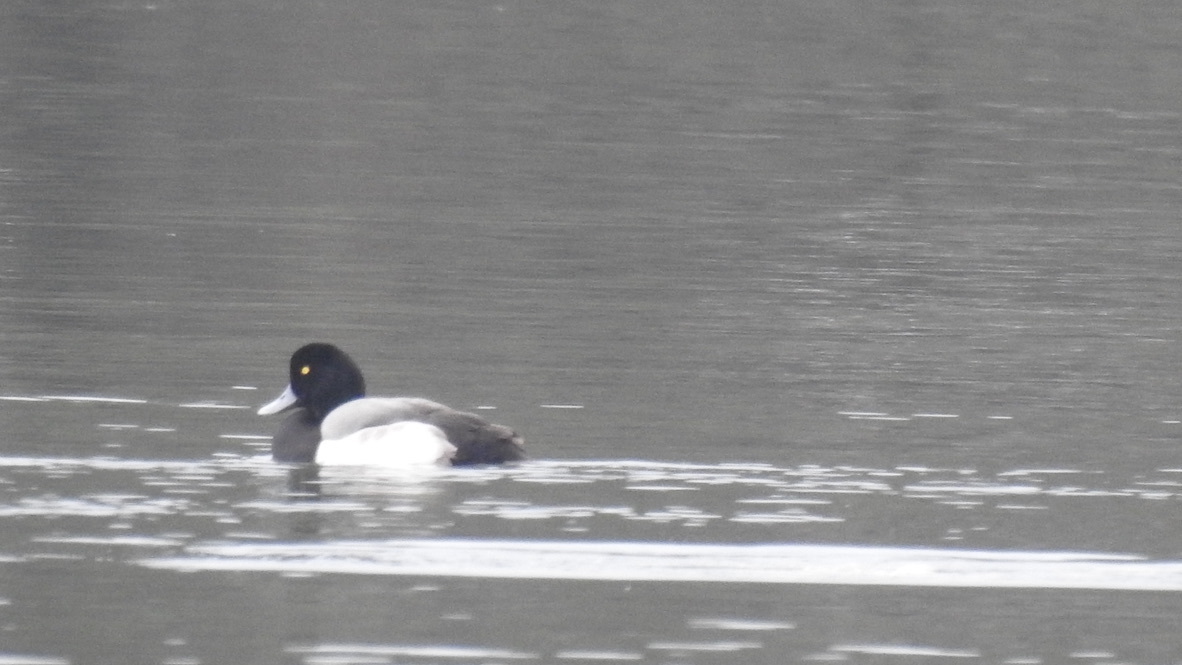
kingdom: Animalia
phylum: Chordata
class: Aves
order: Anseriformes
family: Anatidae
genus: Aythya
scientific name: Aythya affinis
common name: Lesser scaup
